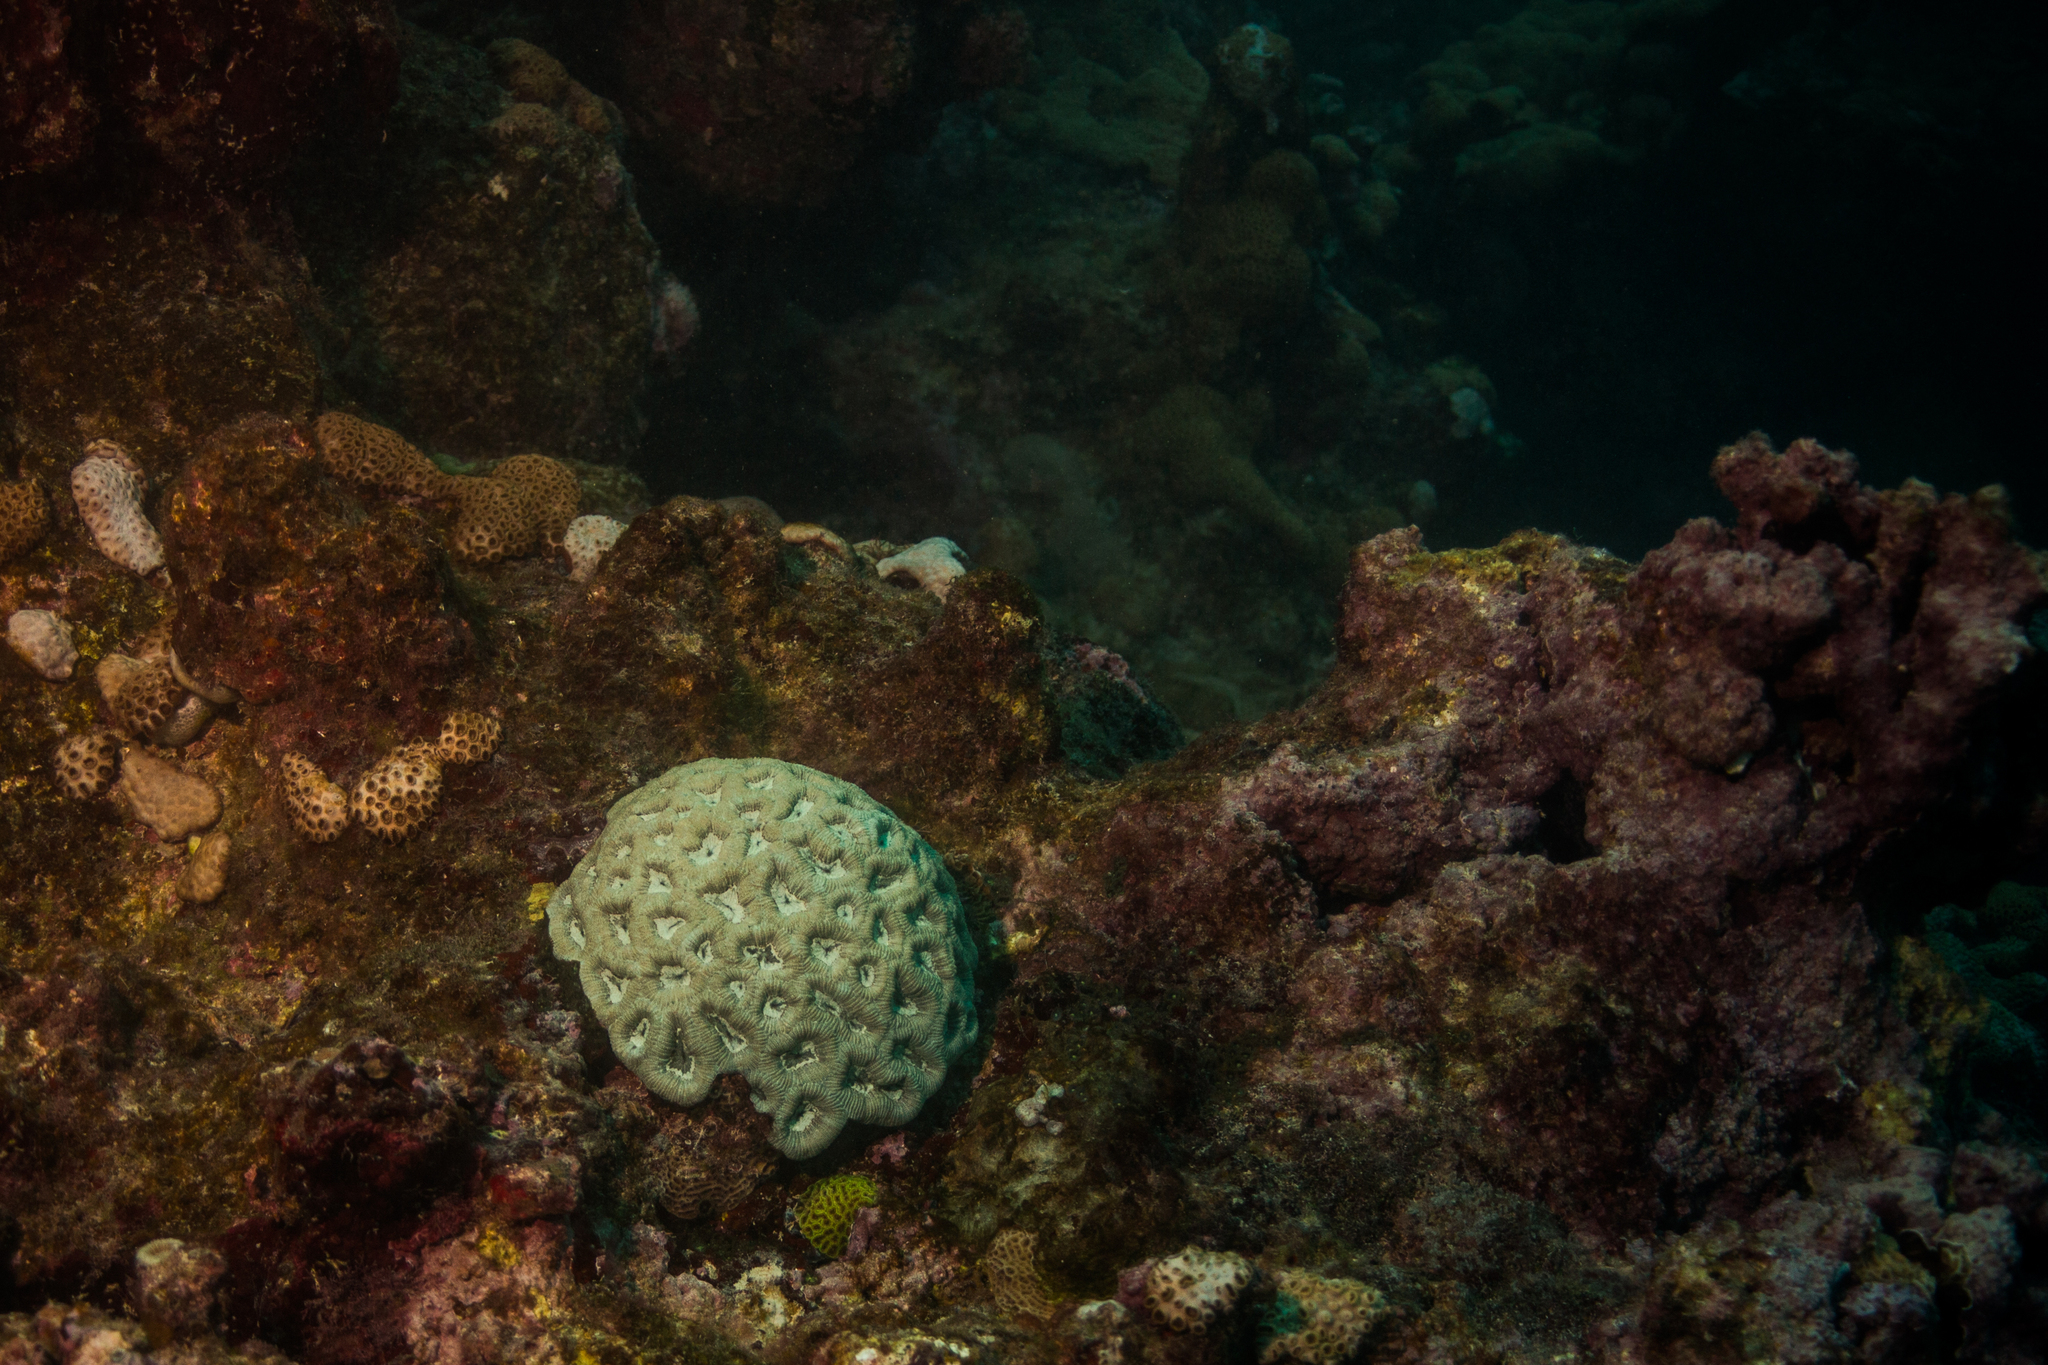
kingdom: Animalia
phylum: Cnidaria
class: Anthozoa
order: Scleractinia
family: Faviidae
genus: Mussismilia
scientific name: Mussismilia hispida
